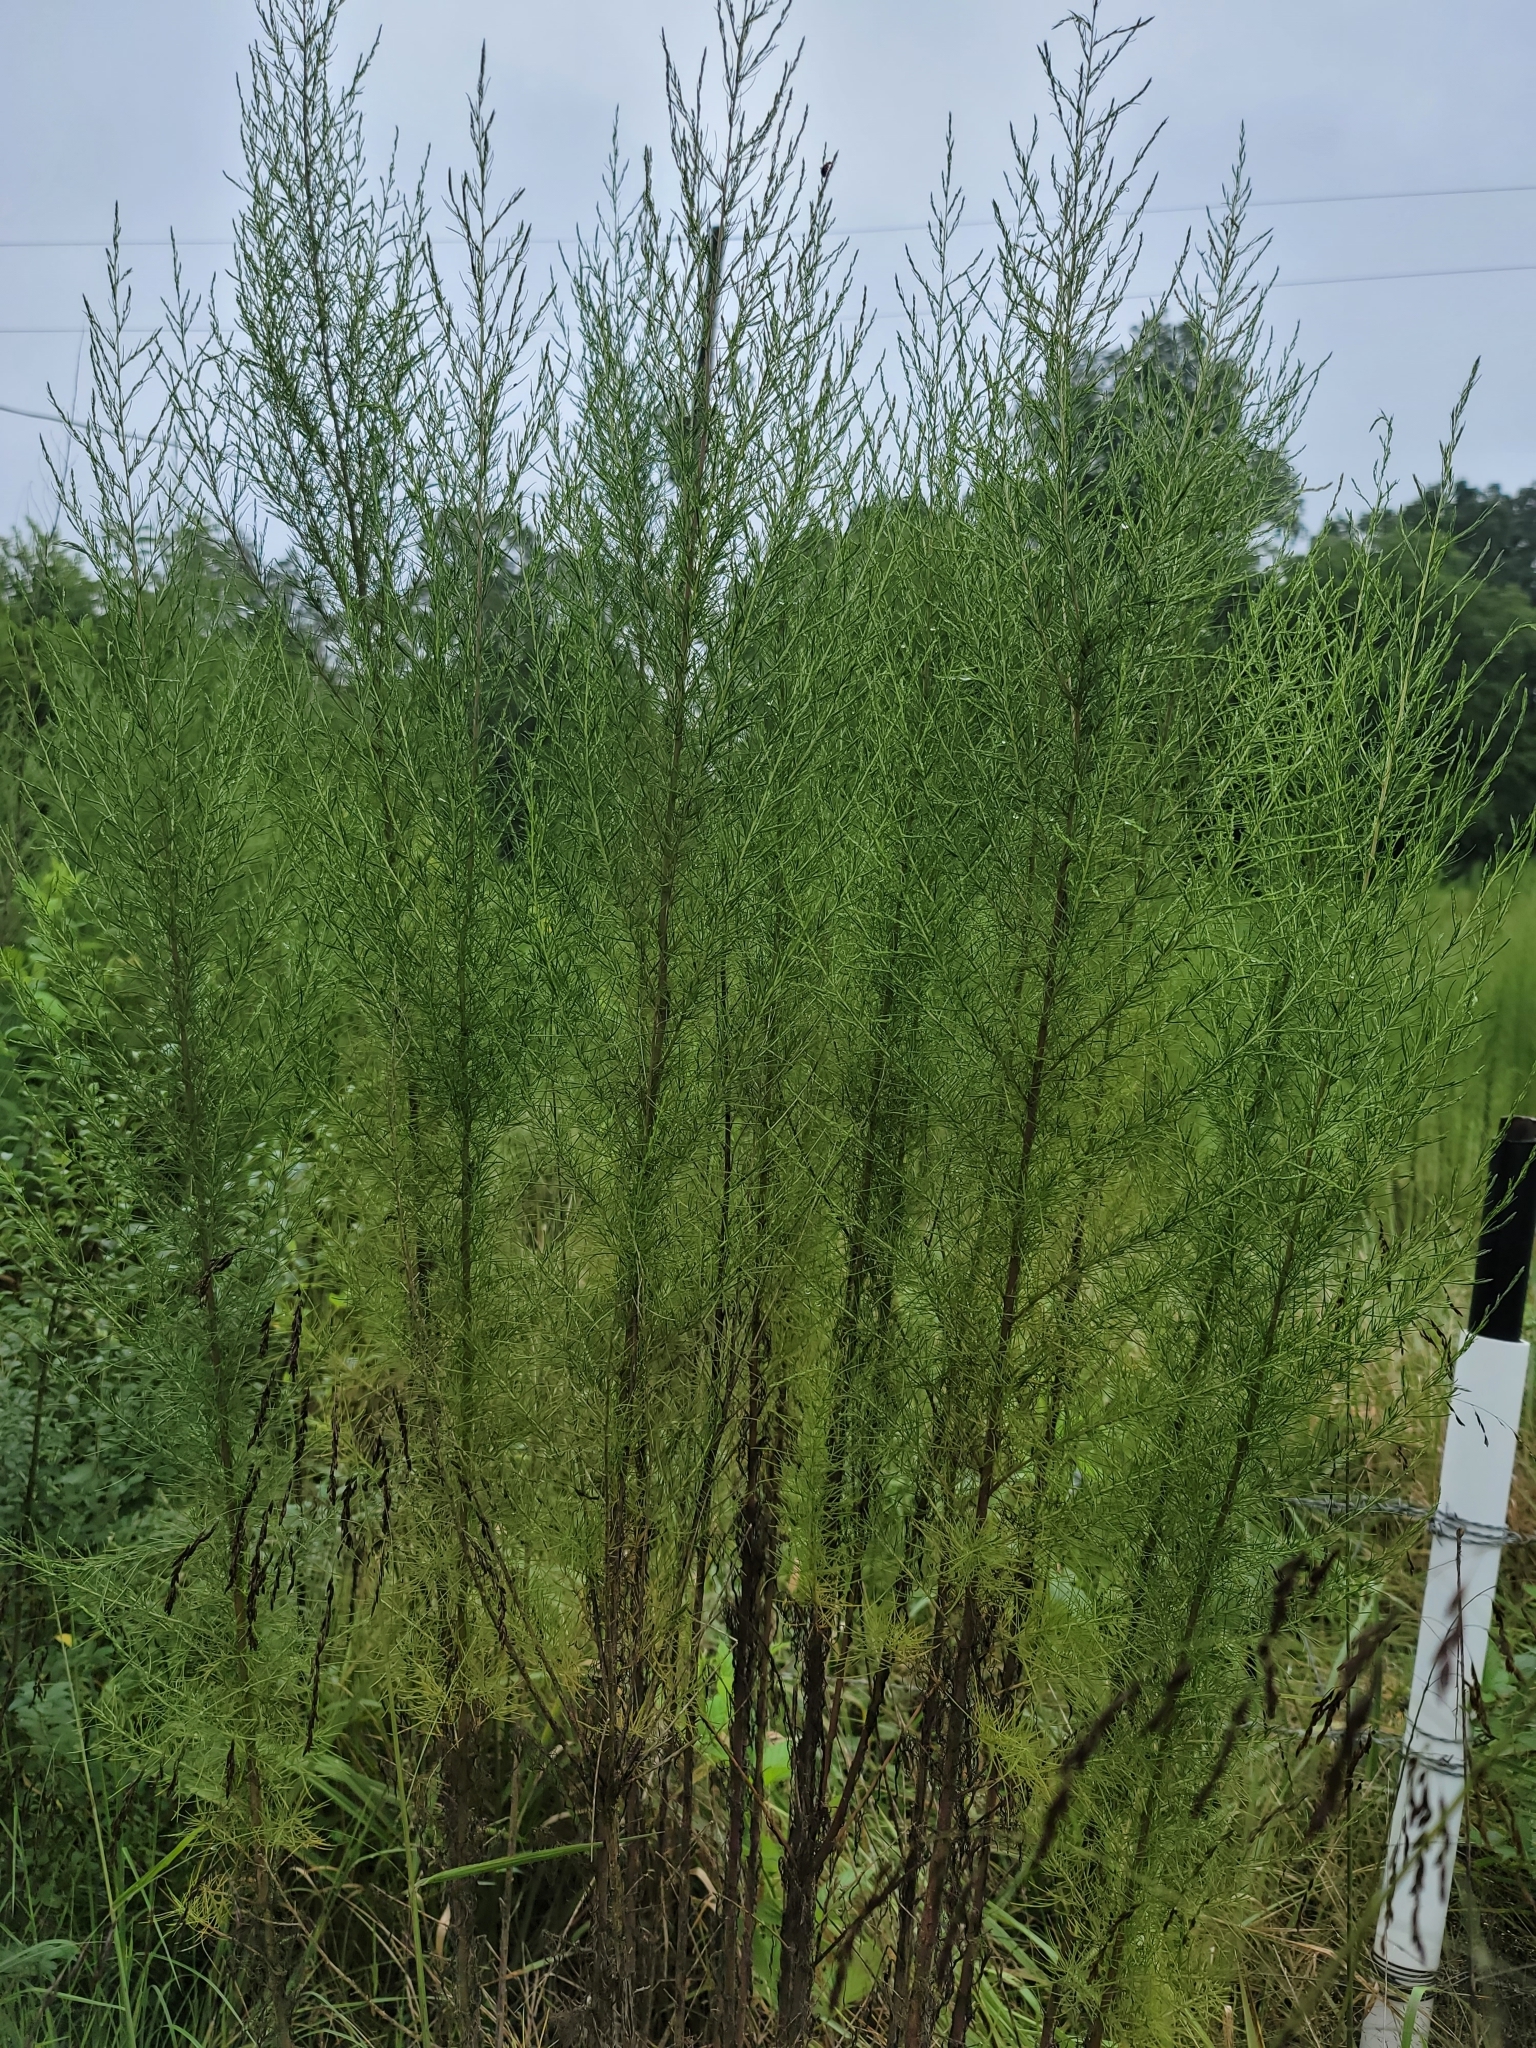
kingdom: Plantae
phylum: Tracheophyta
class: Magnoliopsida
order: Asterales
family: Asteraceae
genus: Eupatorium
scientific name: Eupatorium capillifolium
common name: Dog-fennel
